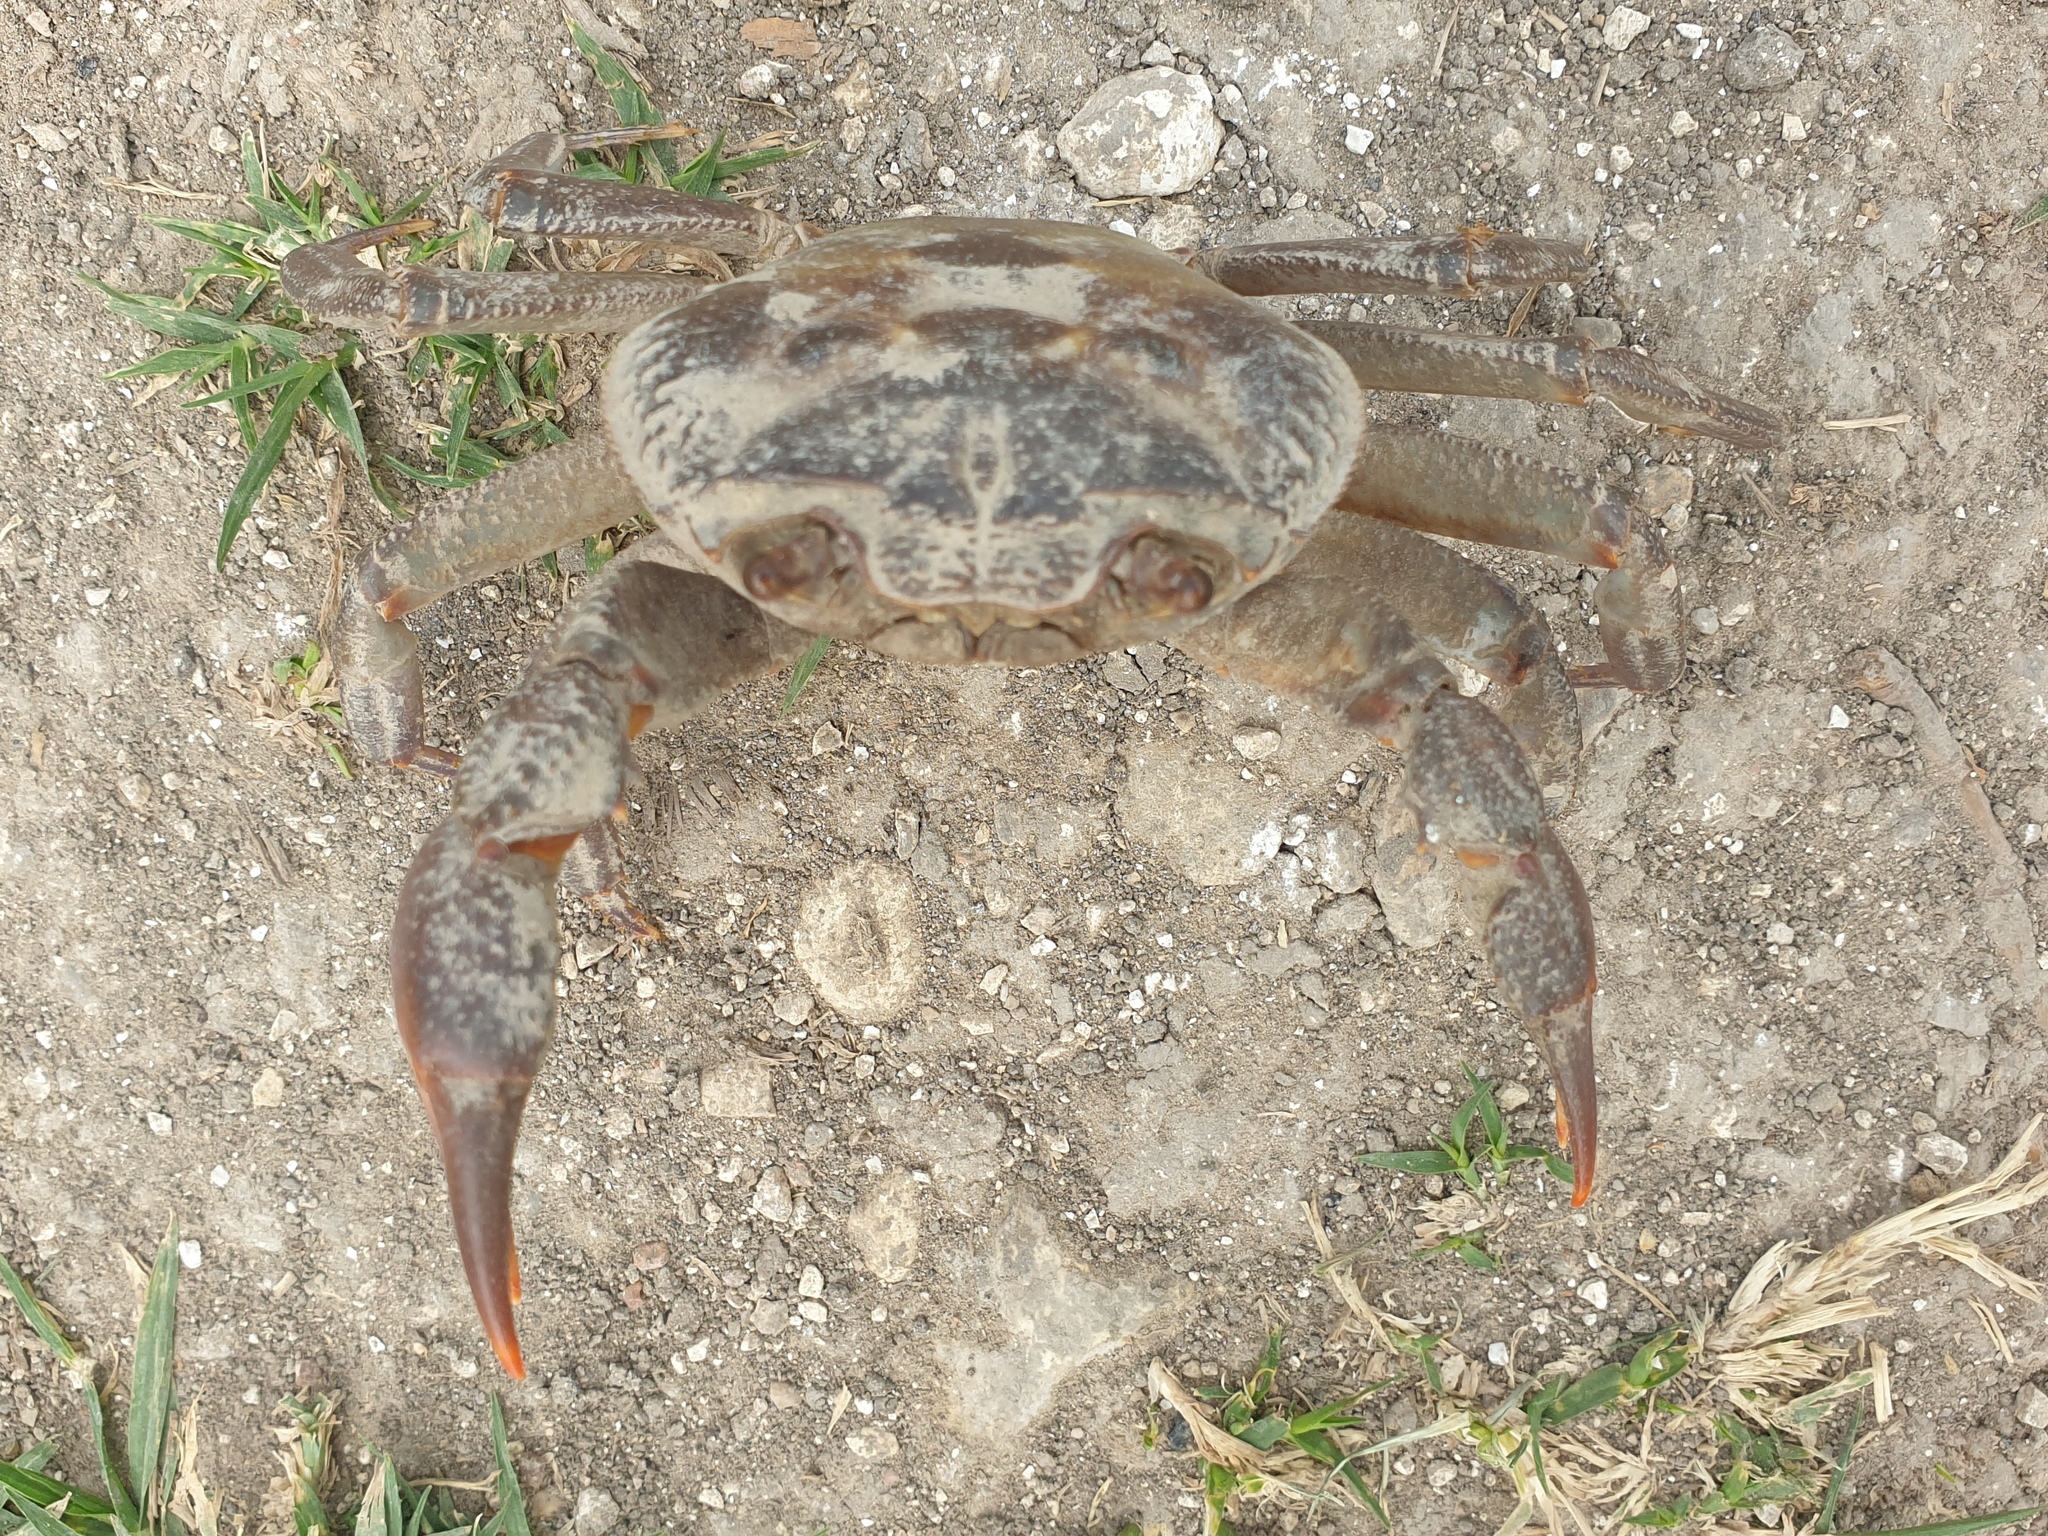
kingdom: Animalia
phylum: Arthropoda
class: Malacostraca
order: Decapoda
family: Potamidae
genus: Potamon
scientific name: Potamon potamios
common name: Aegean freshwater crab
